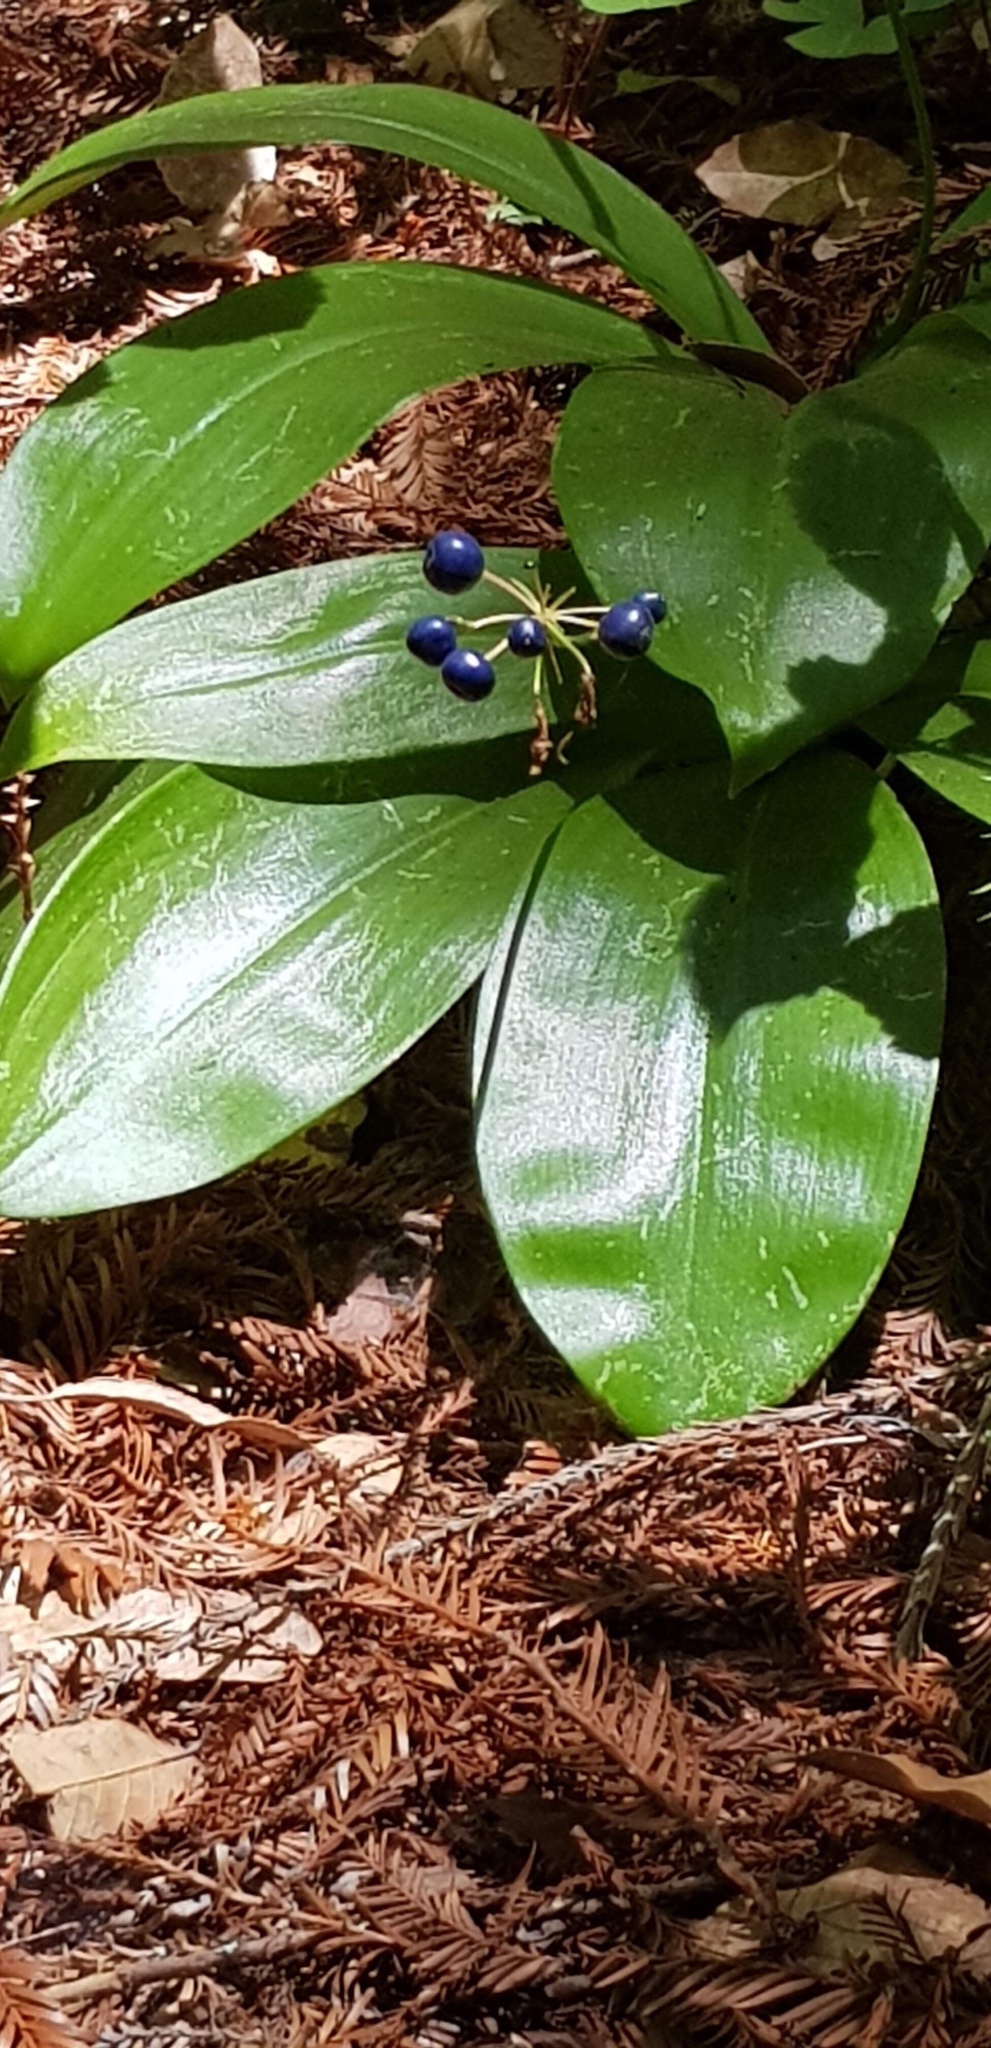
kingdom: Plantae
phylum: Tracheophyta
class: Liliopsida
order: Liliales
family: Liliaceae
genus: Clintonia
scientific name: Clintonia andrewsiana
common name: Red clintonia
